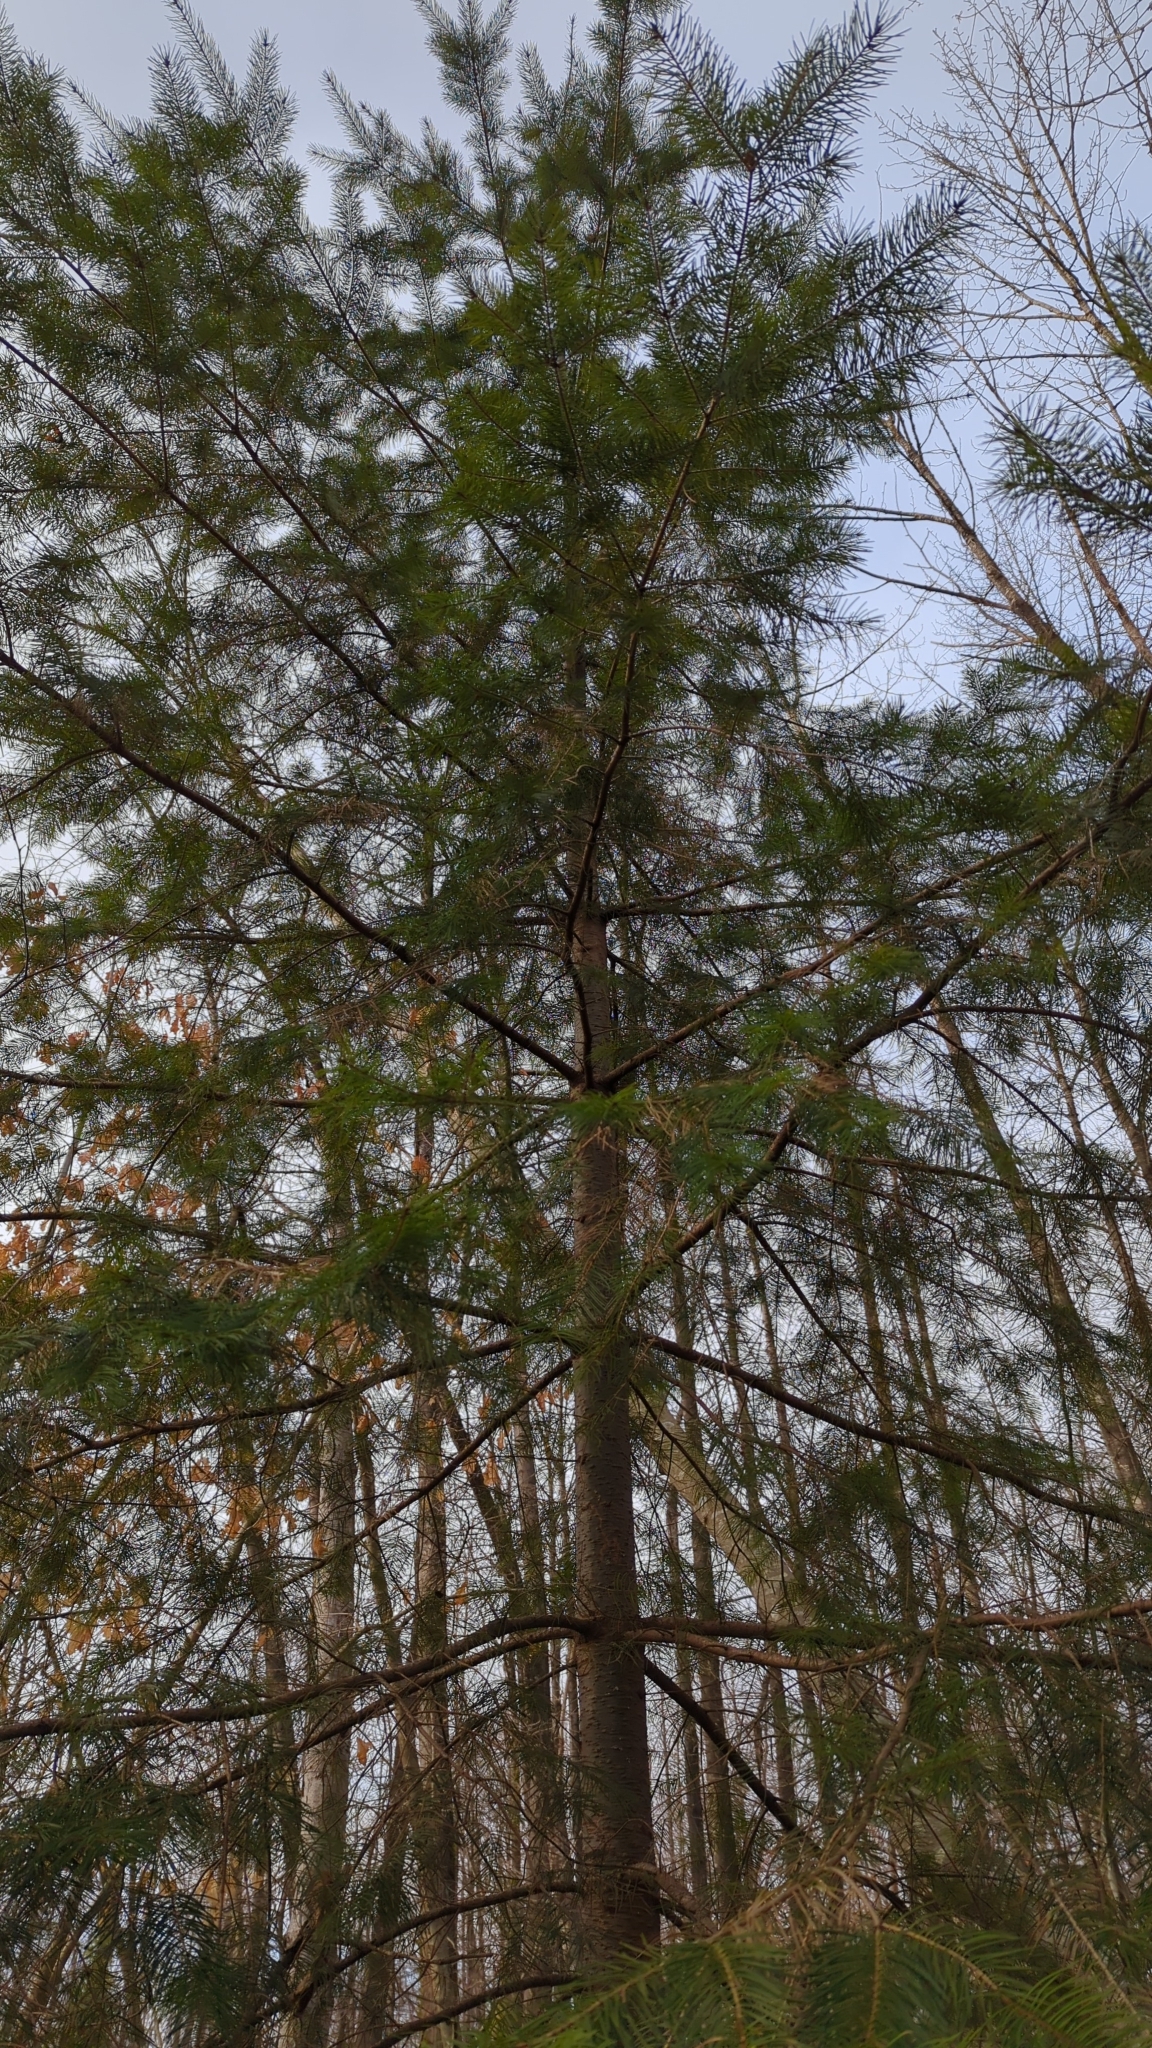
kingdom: Plantae
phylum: Tracheophyta
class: Pinopsida
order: Pinales
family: Pinaceae
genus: Pseudotsuga
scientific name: Pseudotsuga menziesii
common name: Douglas fir
